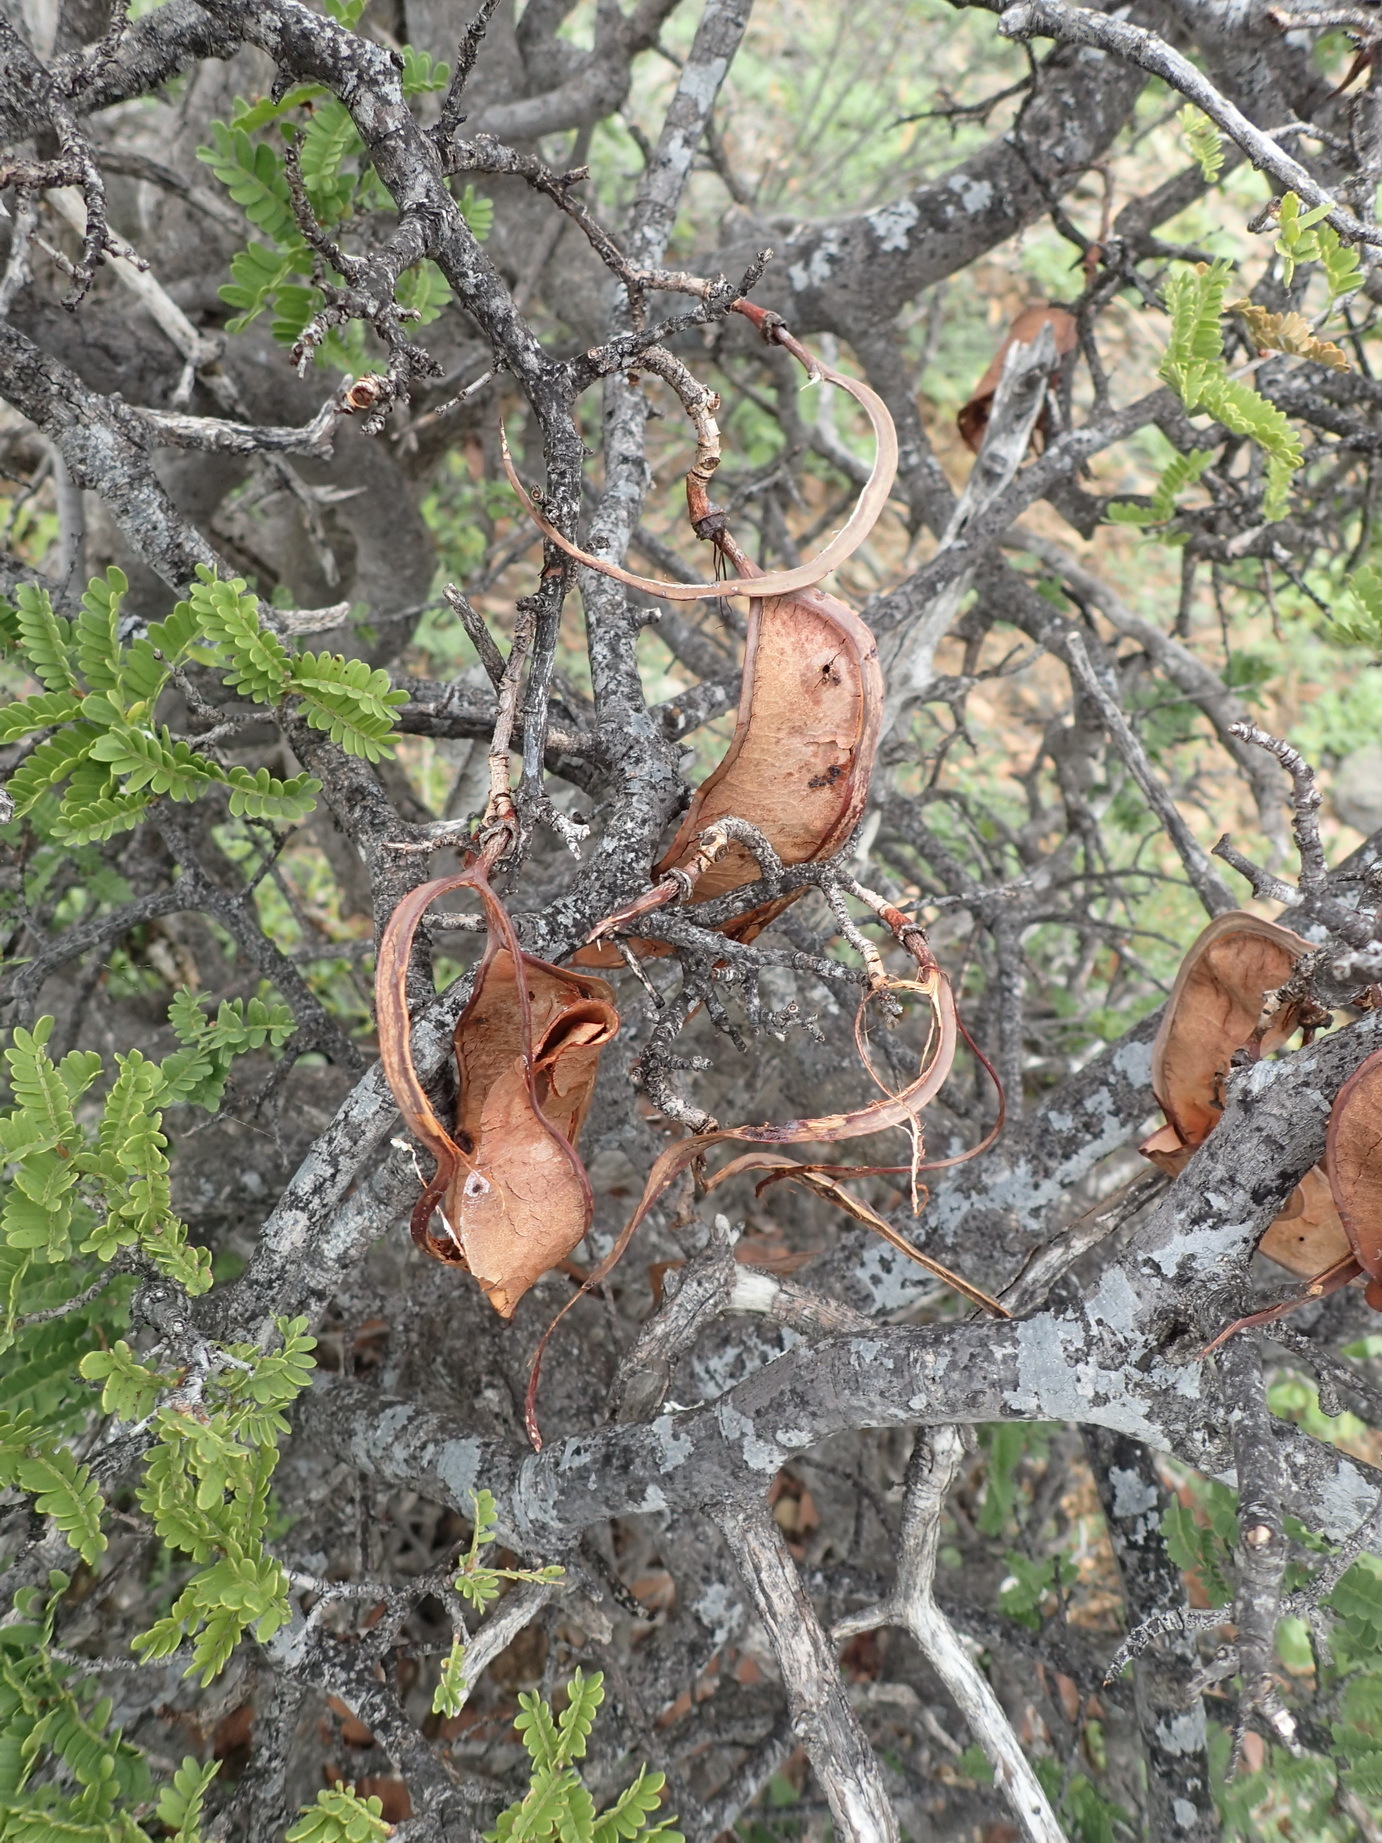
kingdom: Plantae
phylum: Tracheophyta
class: Magnoliopsida
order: Fabales
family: Fabaceae
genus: Schotia
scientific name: Schotia afra
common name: Hottentot's bean
